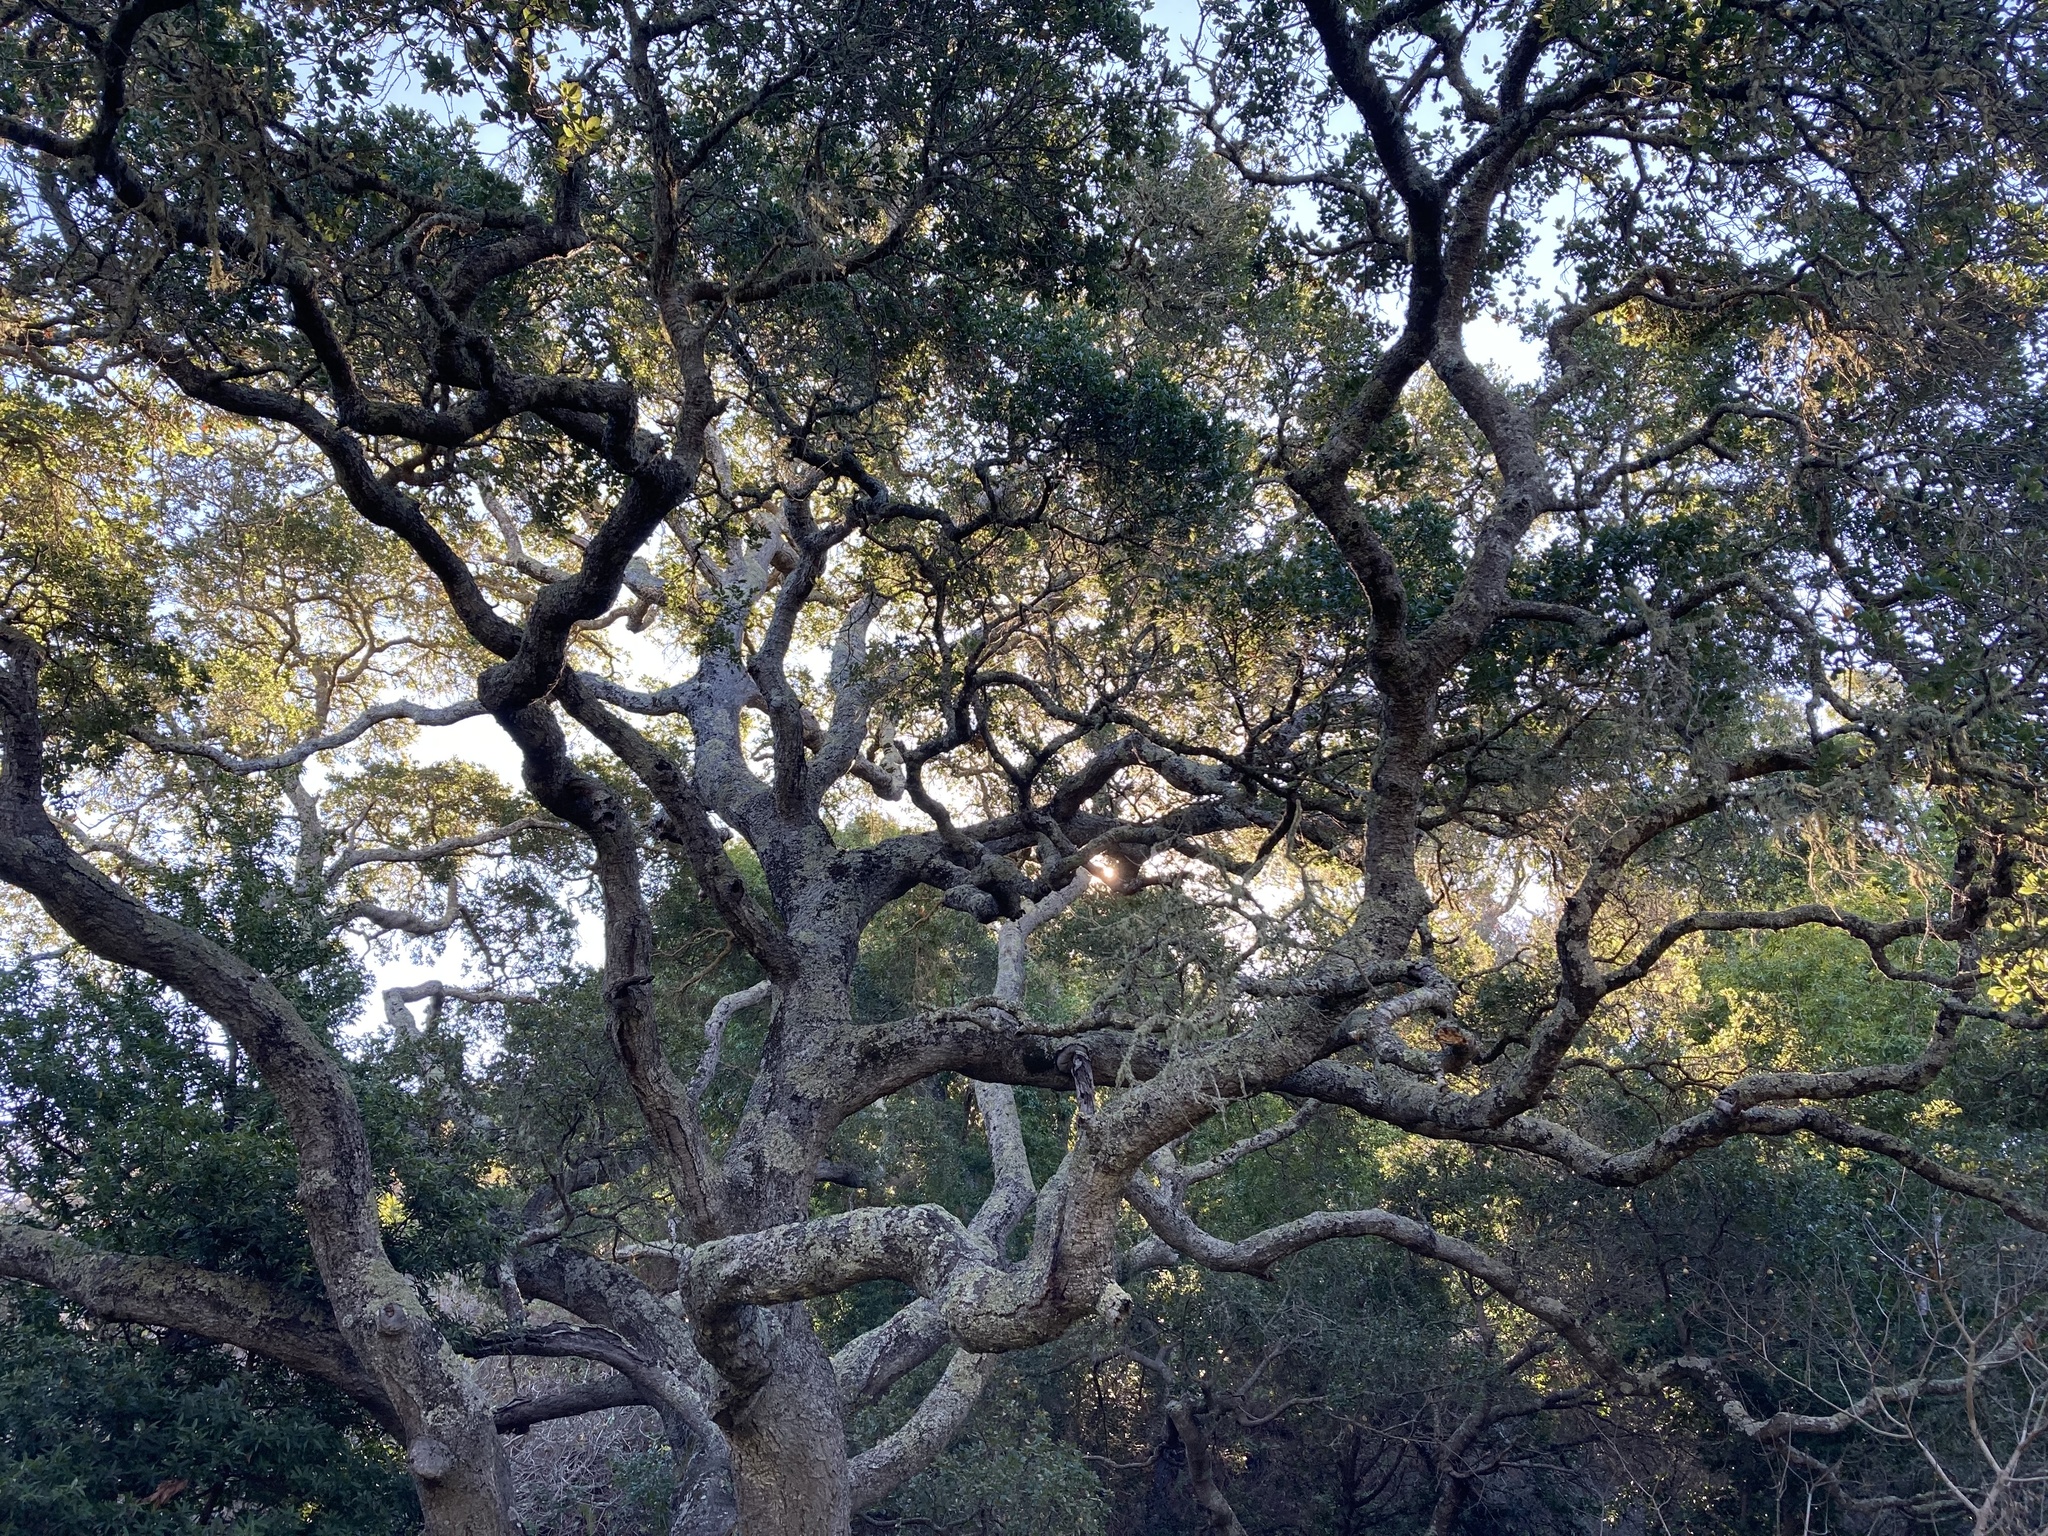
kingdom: Plantae
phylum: Tracheophyta
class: Magnoliopsida
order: Fagales
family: Fagaceae
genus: Quercus
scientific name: Quercus agrifolia
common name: California live oak
